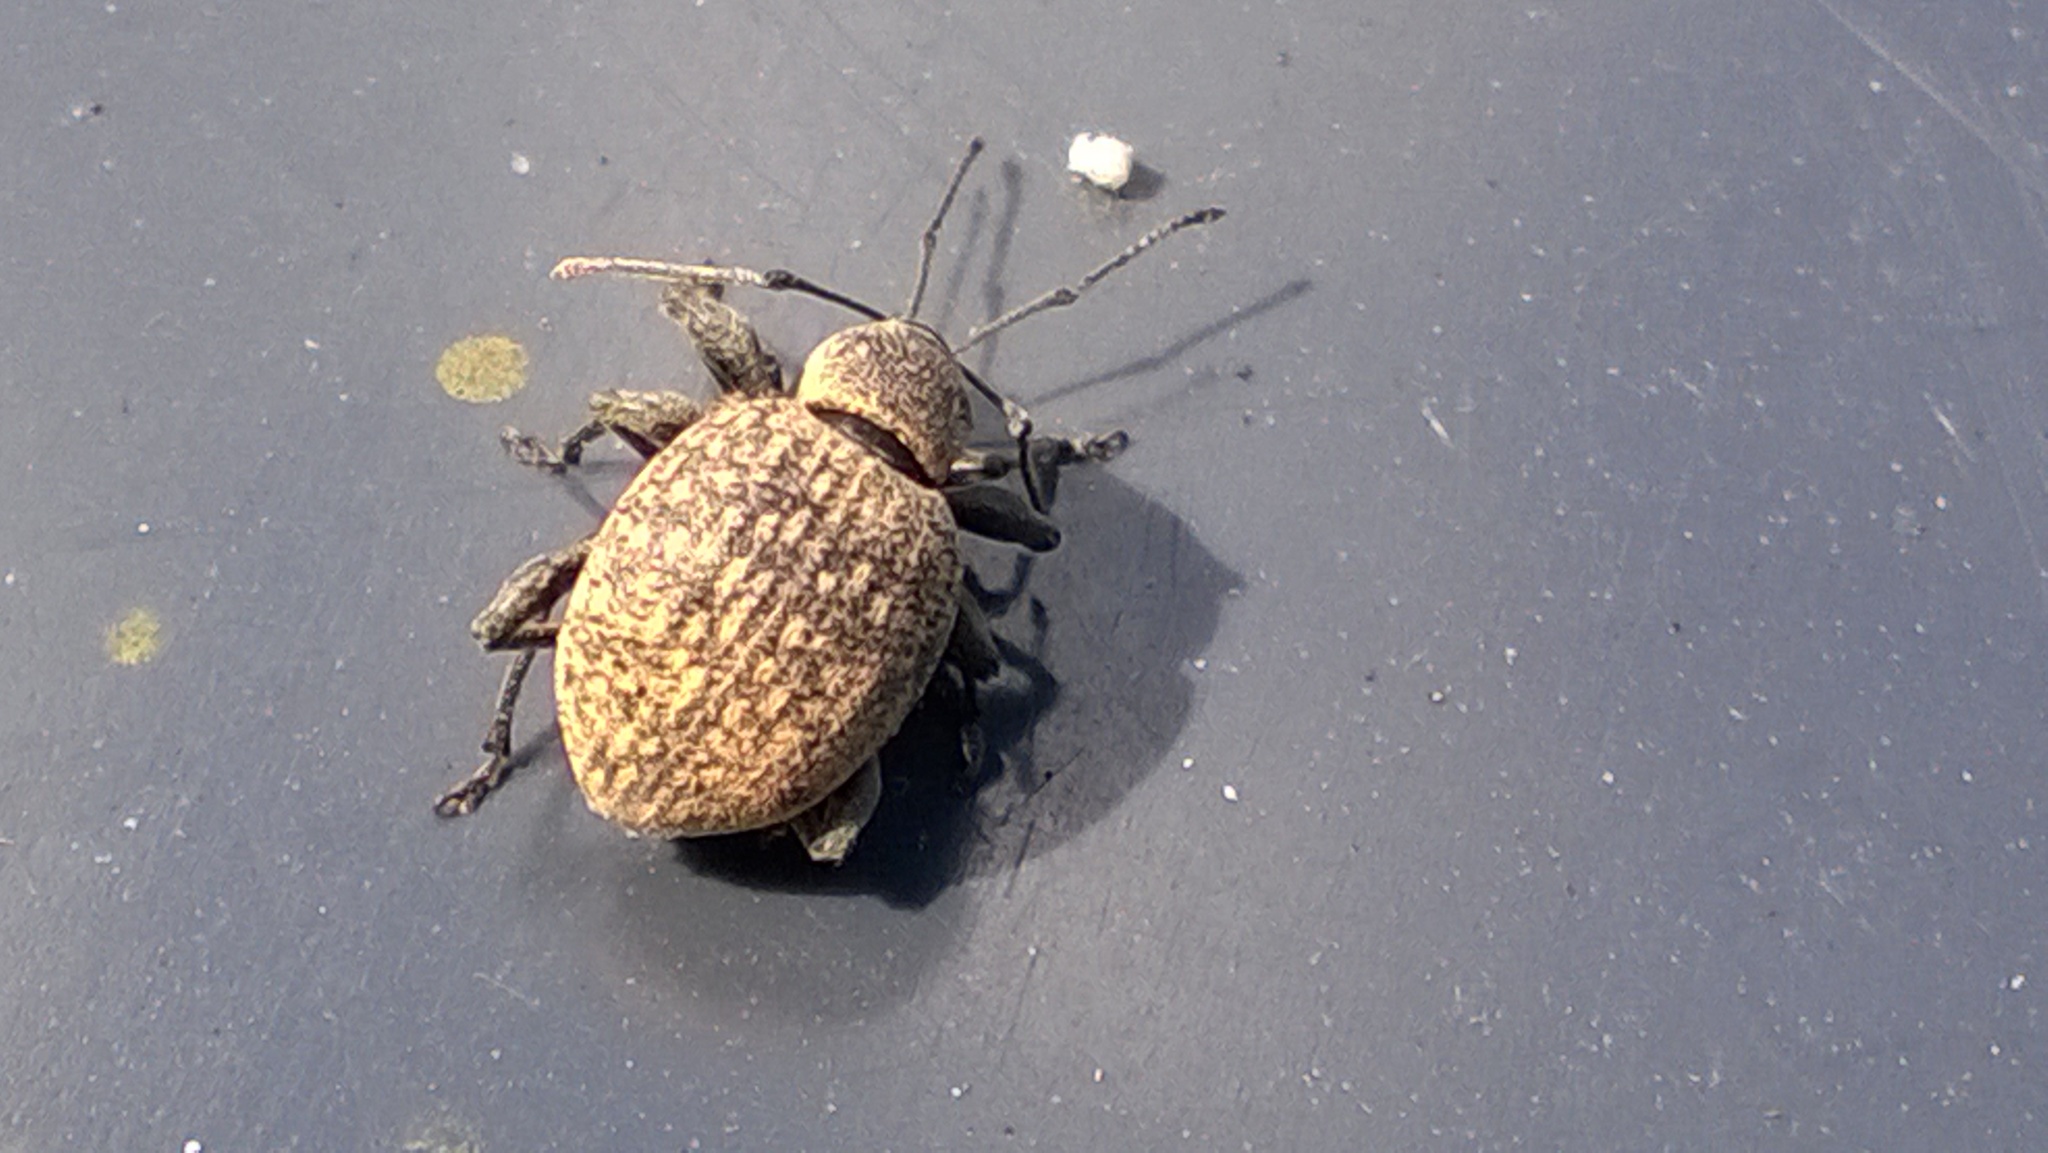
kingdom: Animalia
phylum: Arthropoda
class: Insecta
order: Coleoptera
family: Curculionidae
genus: Otiorhynchus
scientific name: Otiorhynchus armadillo
